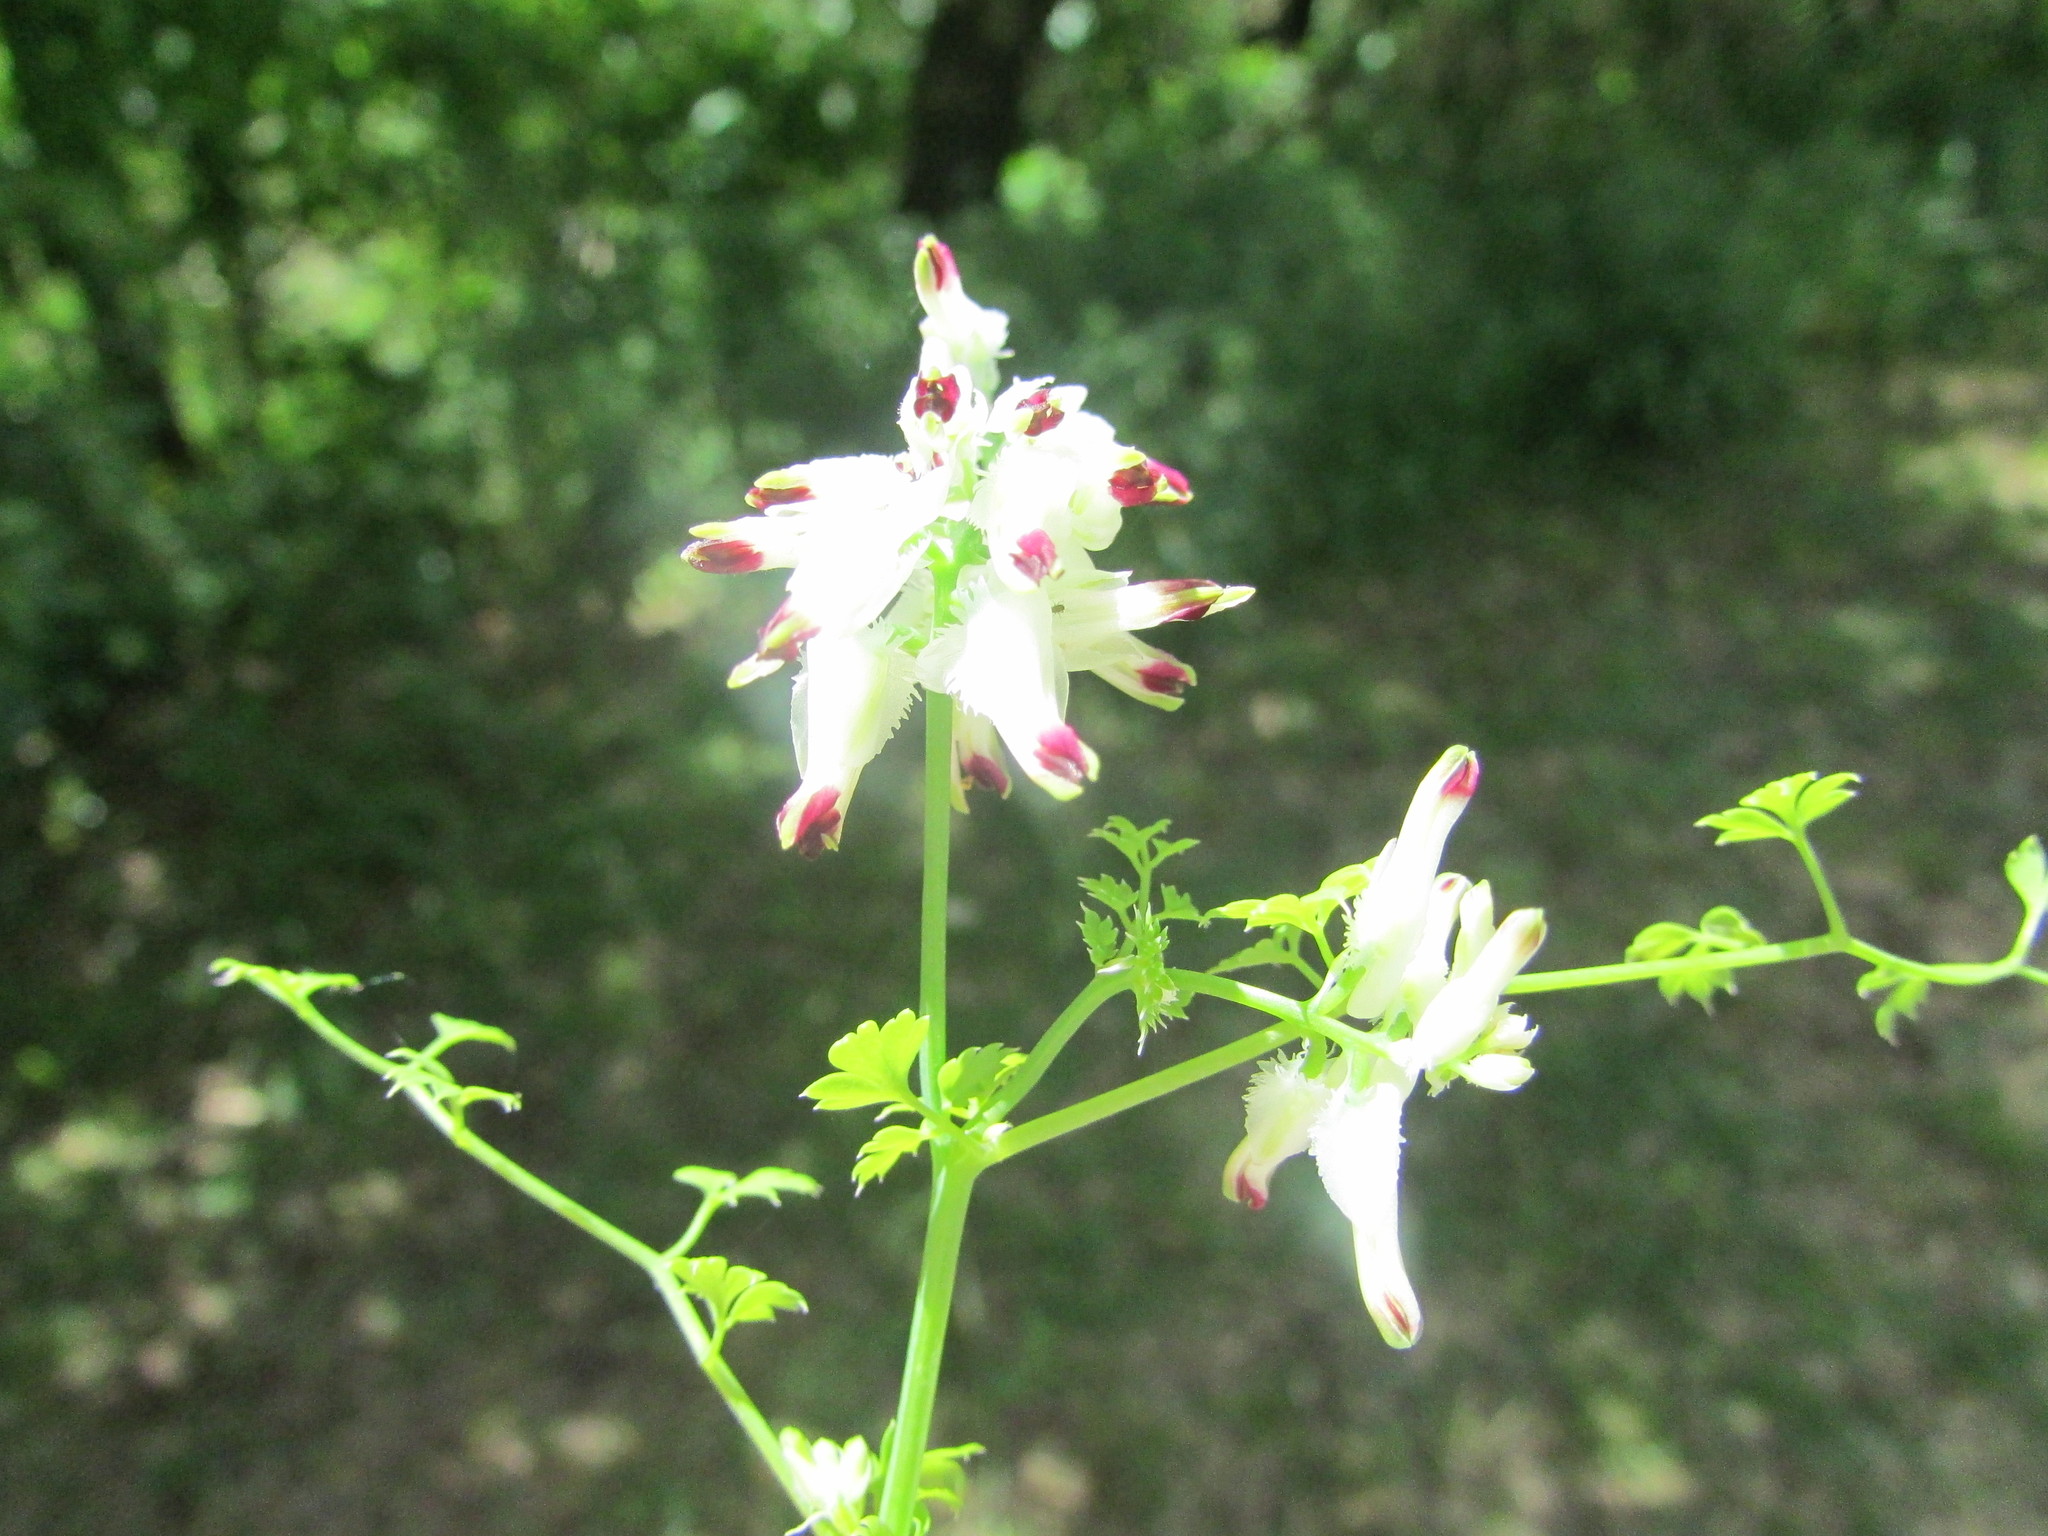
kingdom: Plantae
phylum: Tracheophyta
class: Magnoliopsida
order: Ranunculales
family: Papaveraceae
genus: Fumaria
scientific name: Fumaria capreolata
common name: White ramping-fumitory
